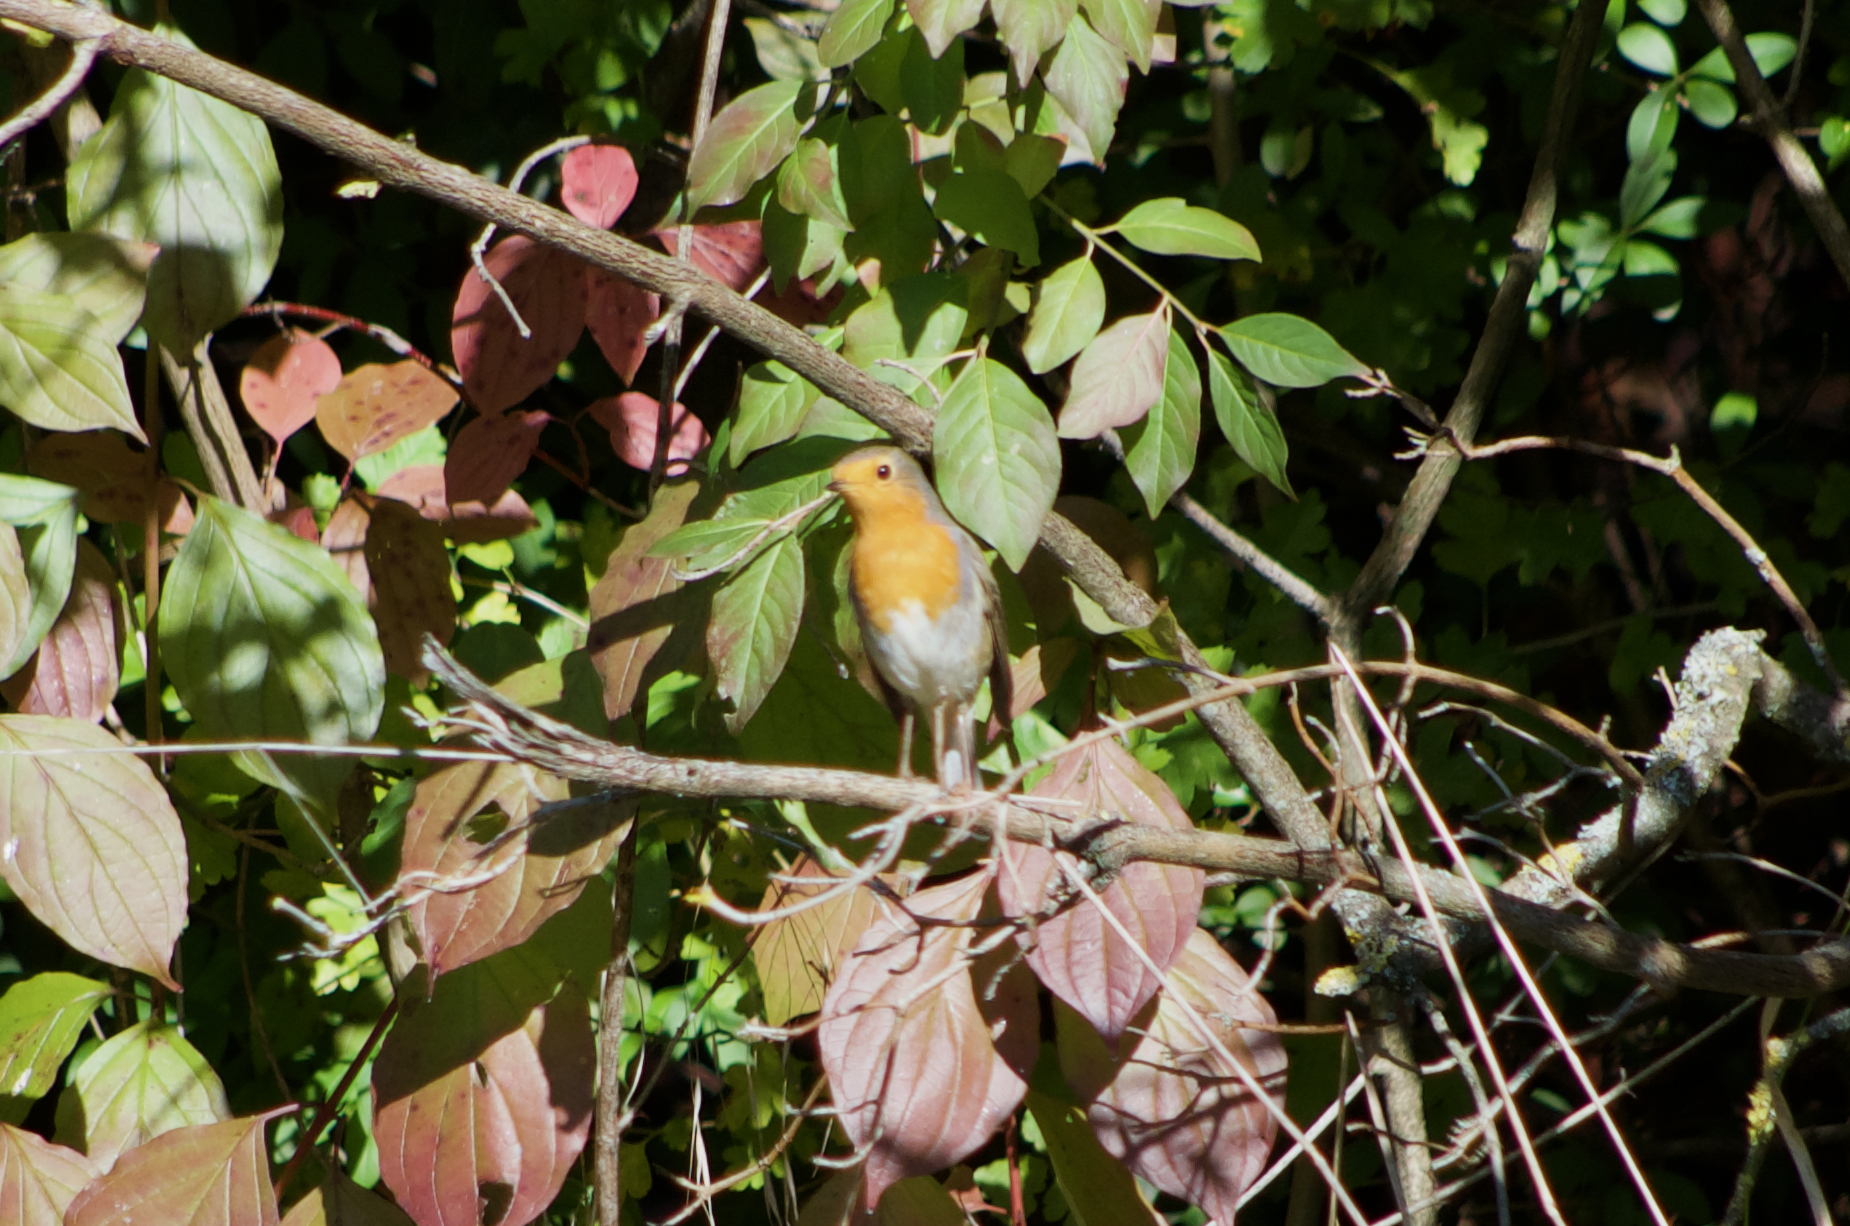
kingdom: Animalia
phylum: Chordata
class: Aves
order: Passeriformes
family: Muscicapidae
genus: Erithacus
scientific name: Erithacus rubecula
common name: European robin
